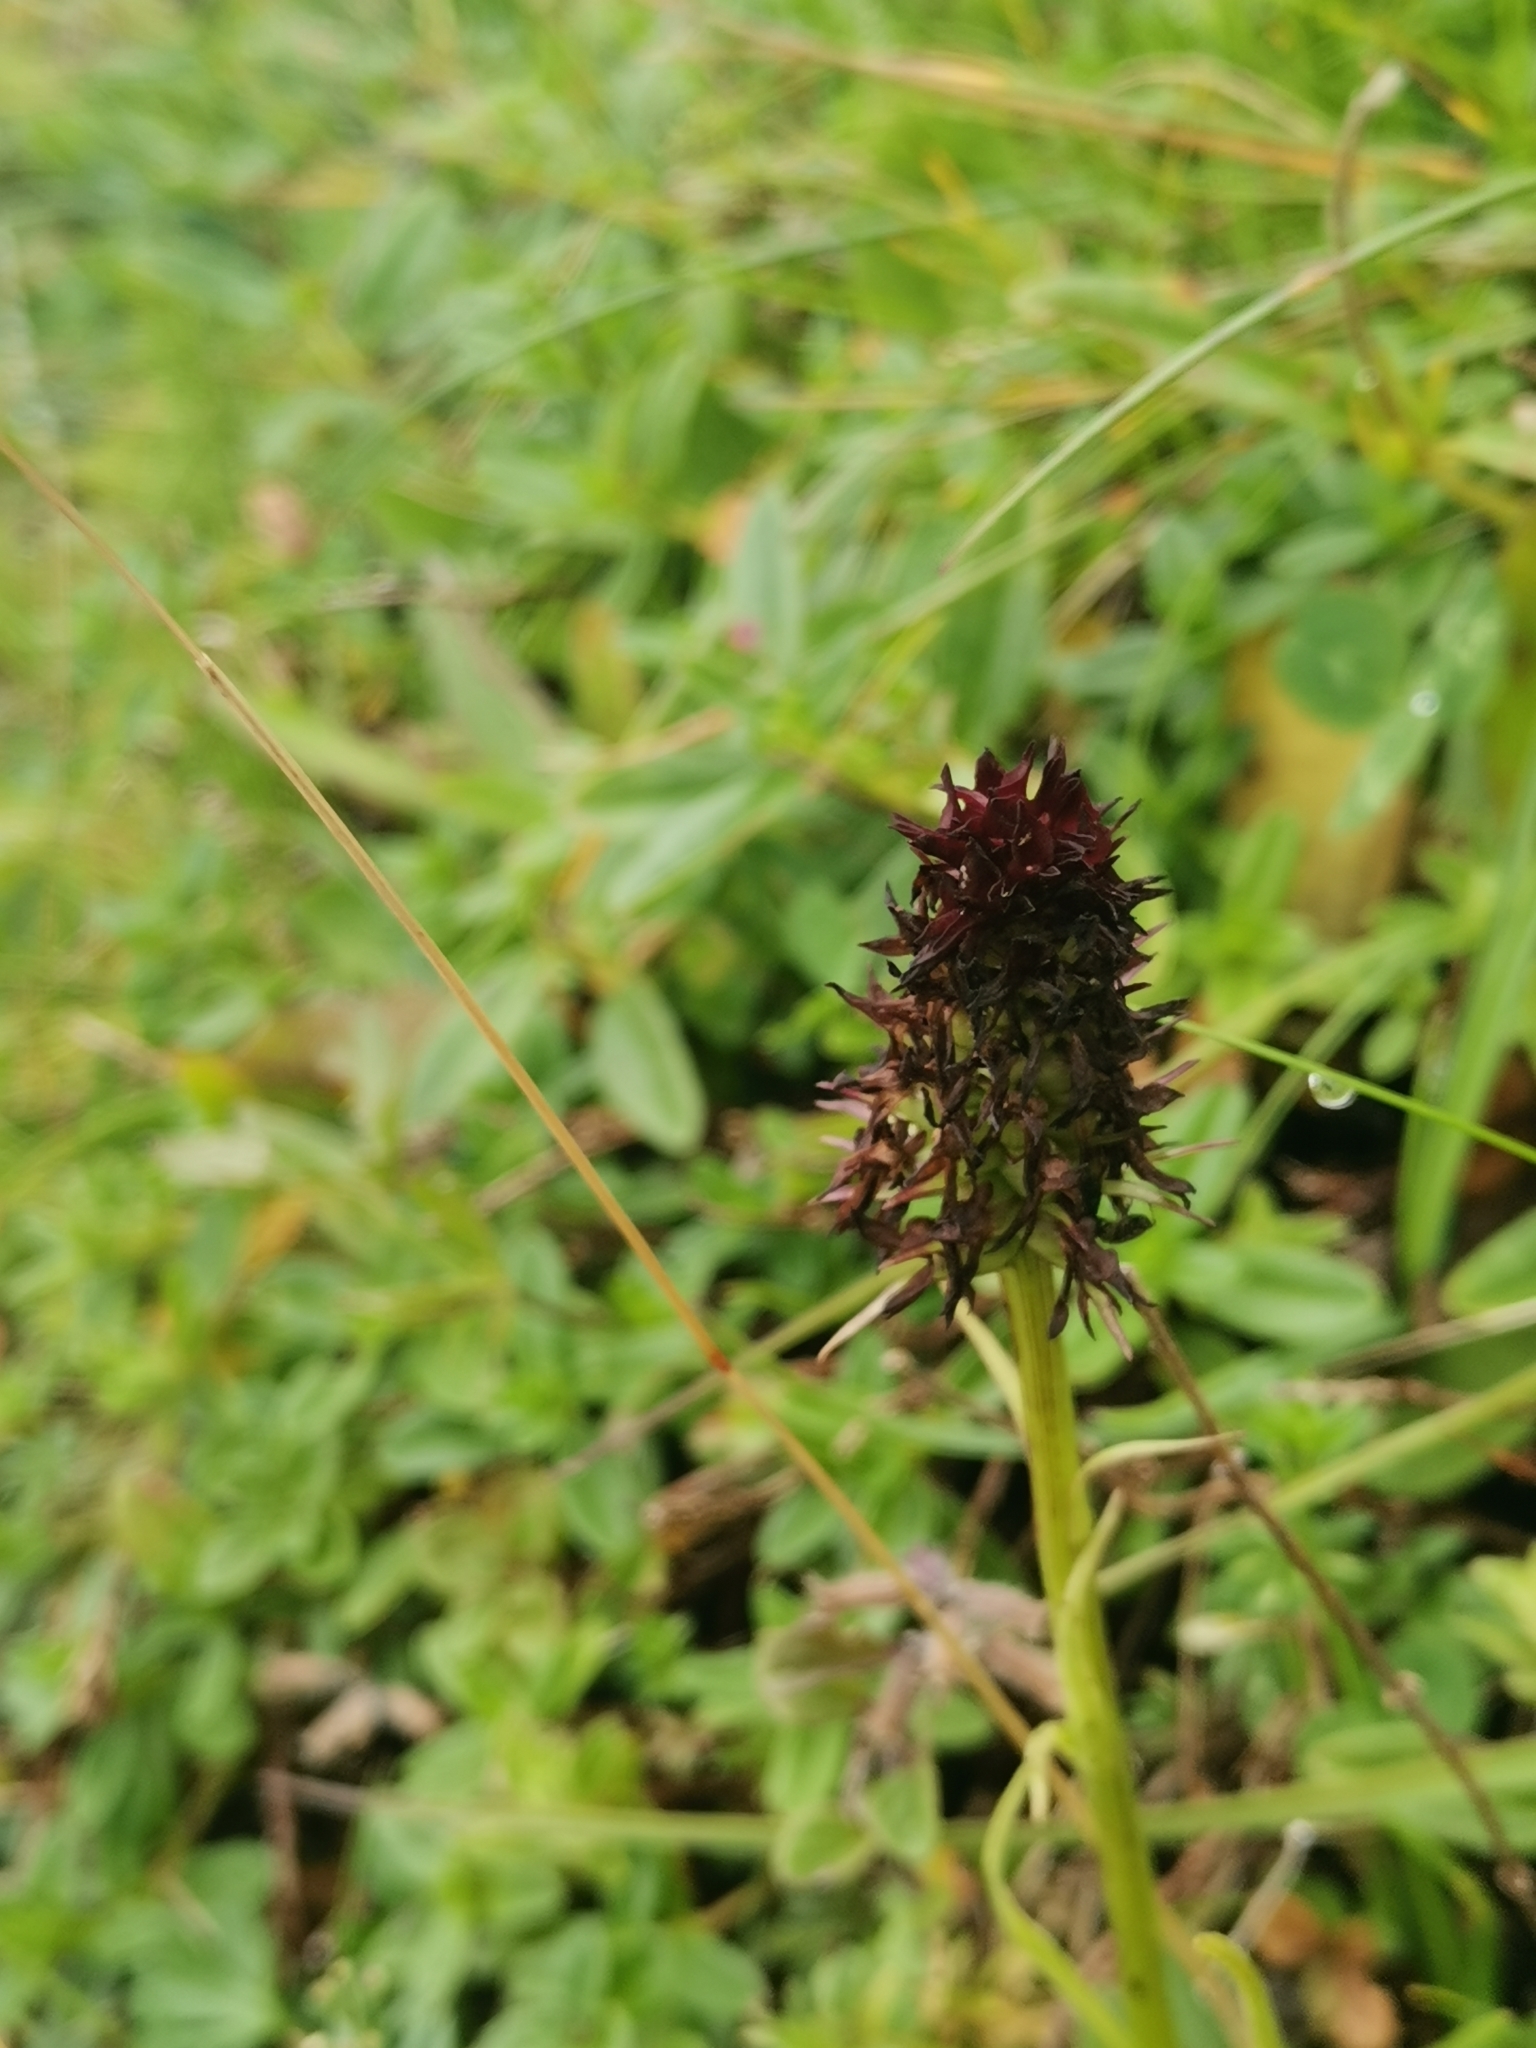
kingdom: Plantae
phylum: Tracheophyta
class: Liliopsida
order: Asparagales
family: Orchidaceae
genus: Gymnadenia
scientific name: Gymnadenia rhellicani
